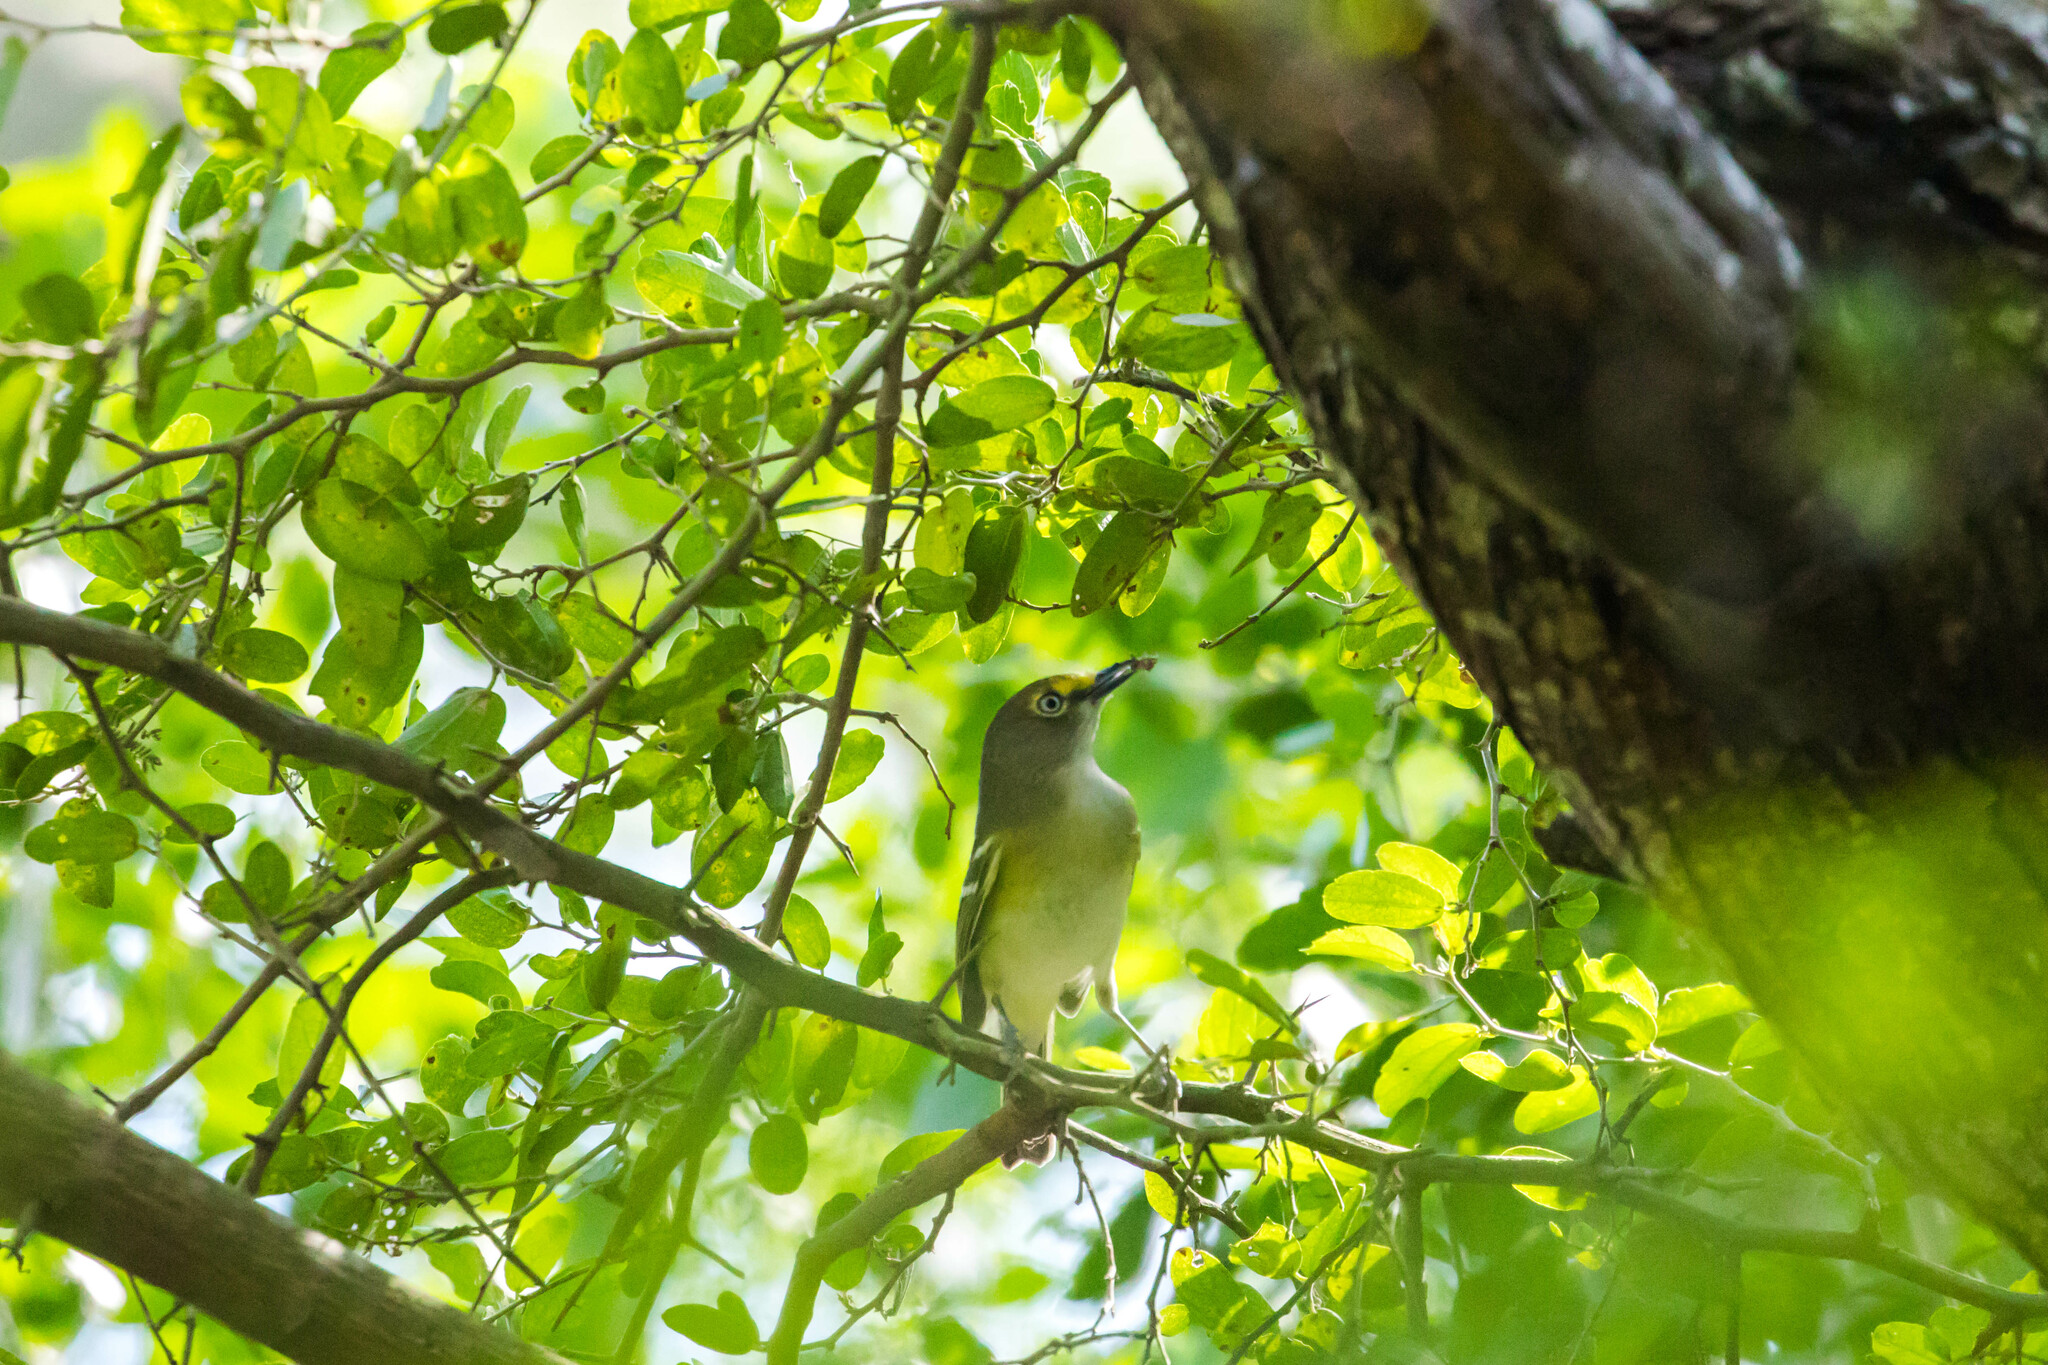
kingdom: Animalia
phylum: Chordata
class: Aves
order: Passeriformes
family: Vireonidae
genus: Vireo
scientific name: Vireo griseus
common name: White-eyed vireo
